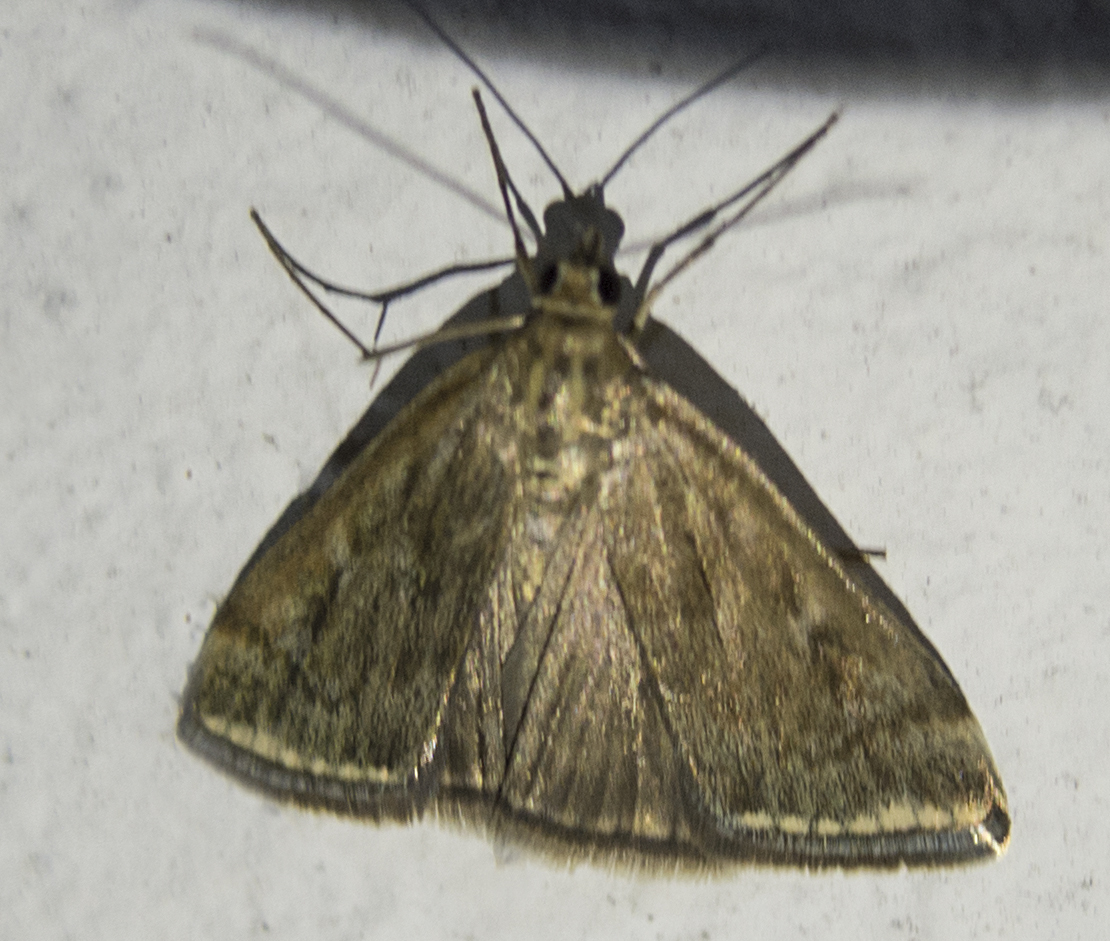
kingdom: Animalia
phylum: Arthropoda
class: Insecta
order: Lepidoptera
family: Crambidae
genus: Loxostege
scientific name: Loxostege sticticalis
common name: Crambid moth
